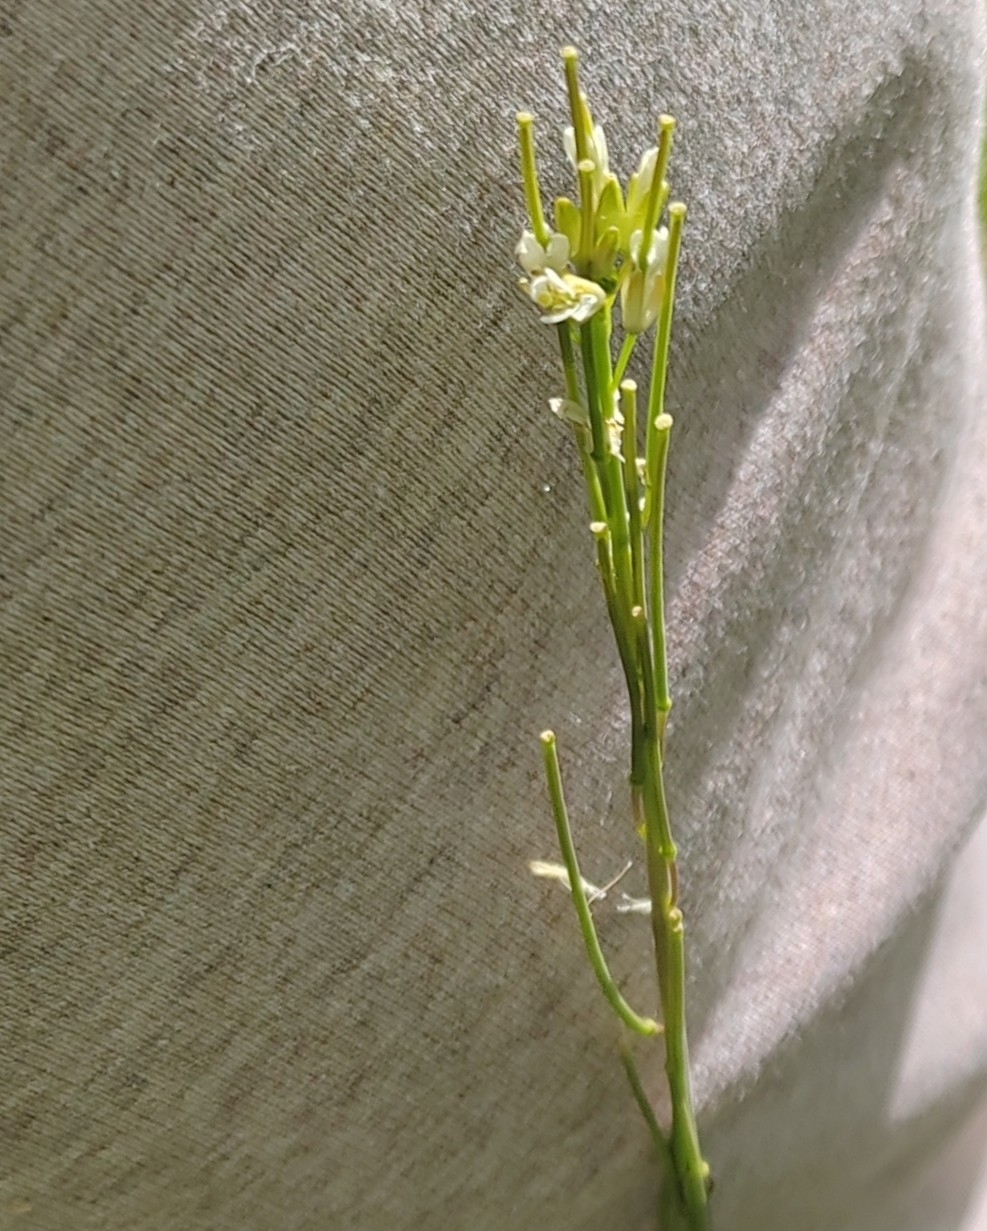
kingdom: Plantae
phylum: Tracheophyta
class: Magnoliopsida
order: Brassicales
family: Brassicaceae
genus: Turritis
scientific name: Turritis glabra
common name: Tower rockcress
